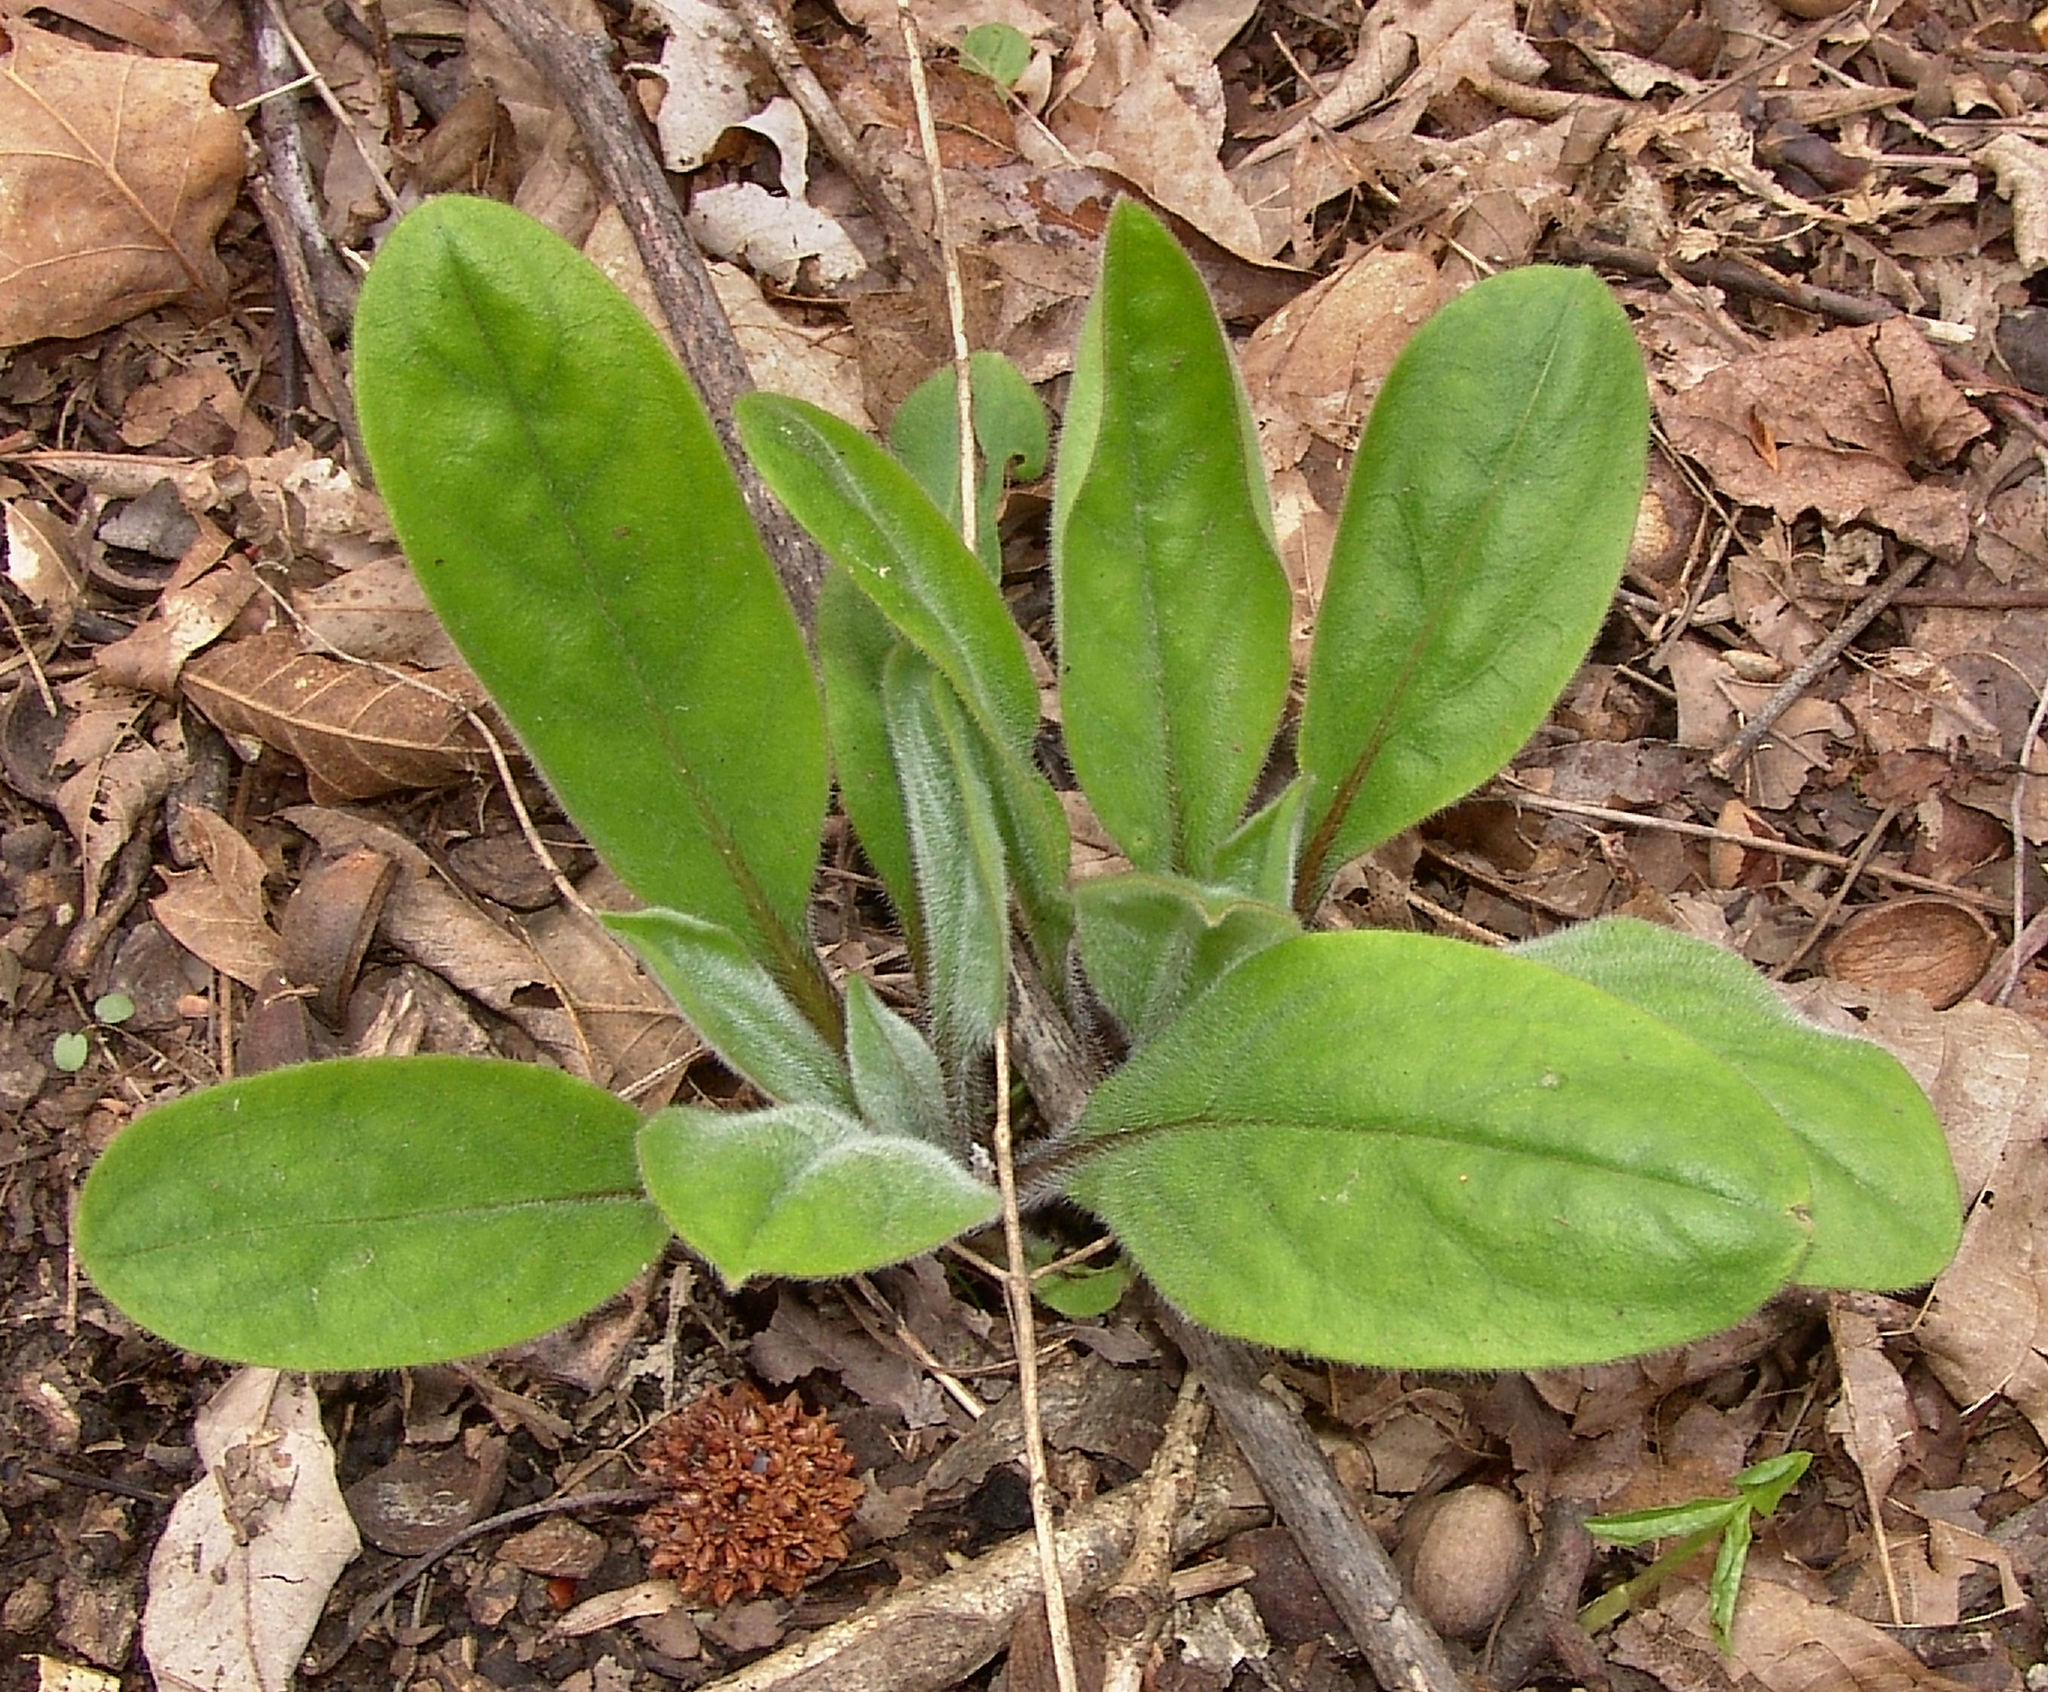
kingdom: Plantae
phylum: Tracheophyta
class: Magnoliopsida
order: Boraginales
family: Boraginaceae
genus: Andersonglossum
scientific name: Andersonglossum virginianum
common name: Wild comfrey
